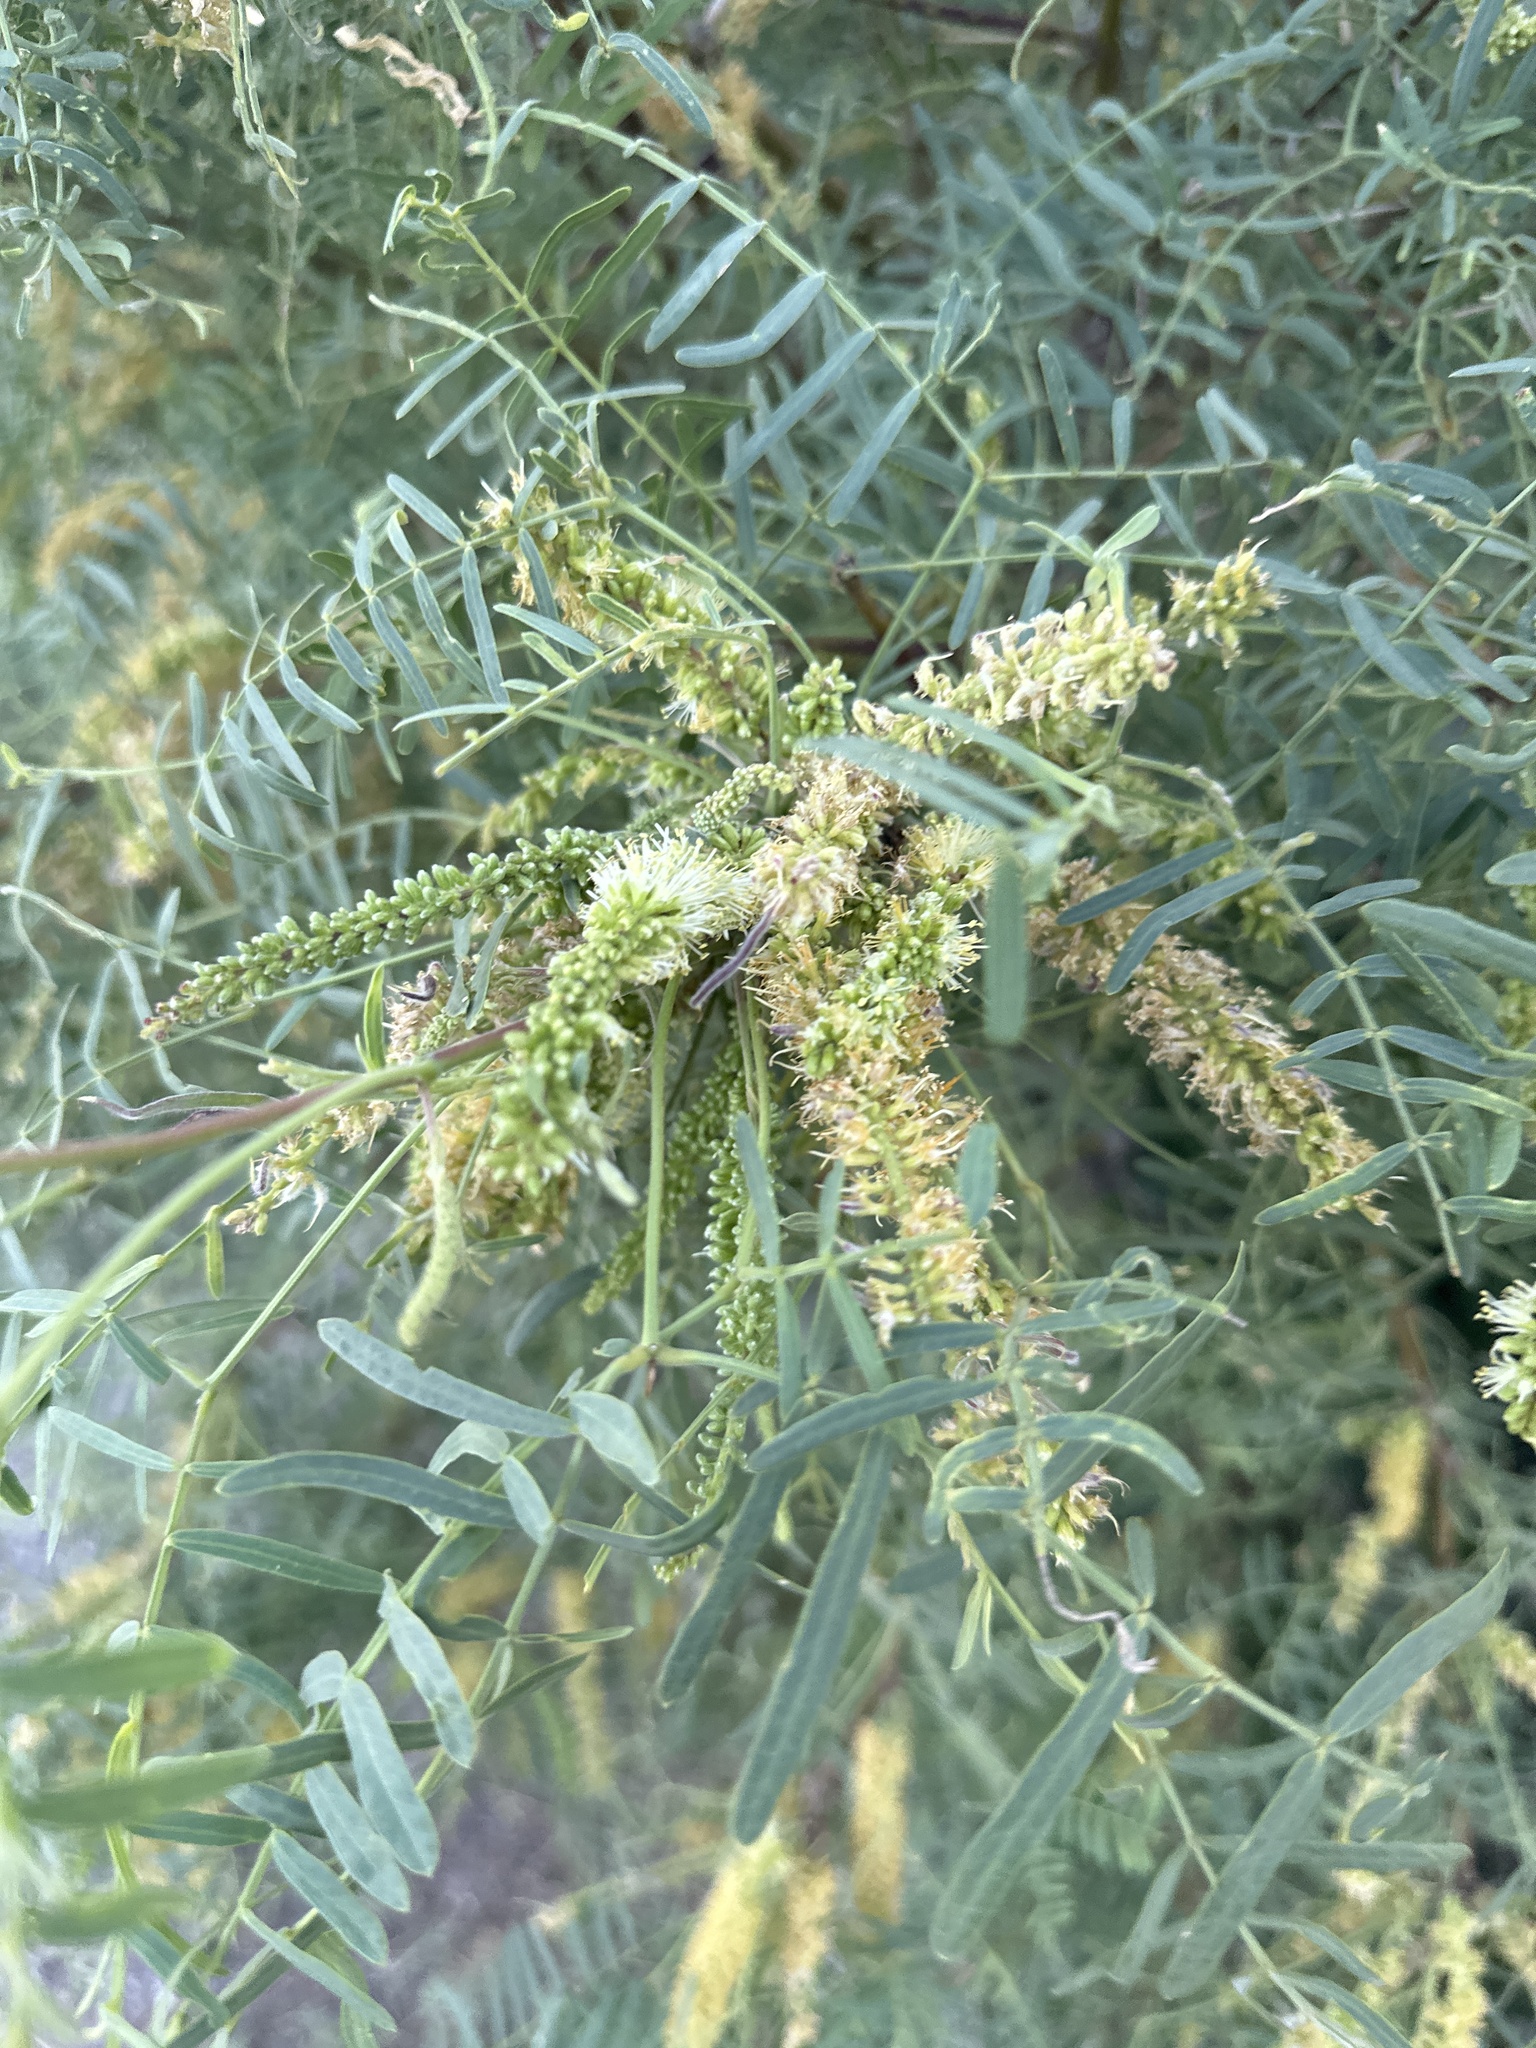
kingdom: Plantae
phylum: Tracheophyta
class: Magnoliopsida
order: Fabales
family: Fabaceae
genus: Prosopis
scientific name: Prosopis glandulosa
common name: Honey mesquite
